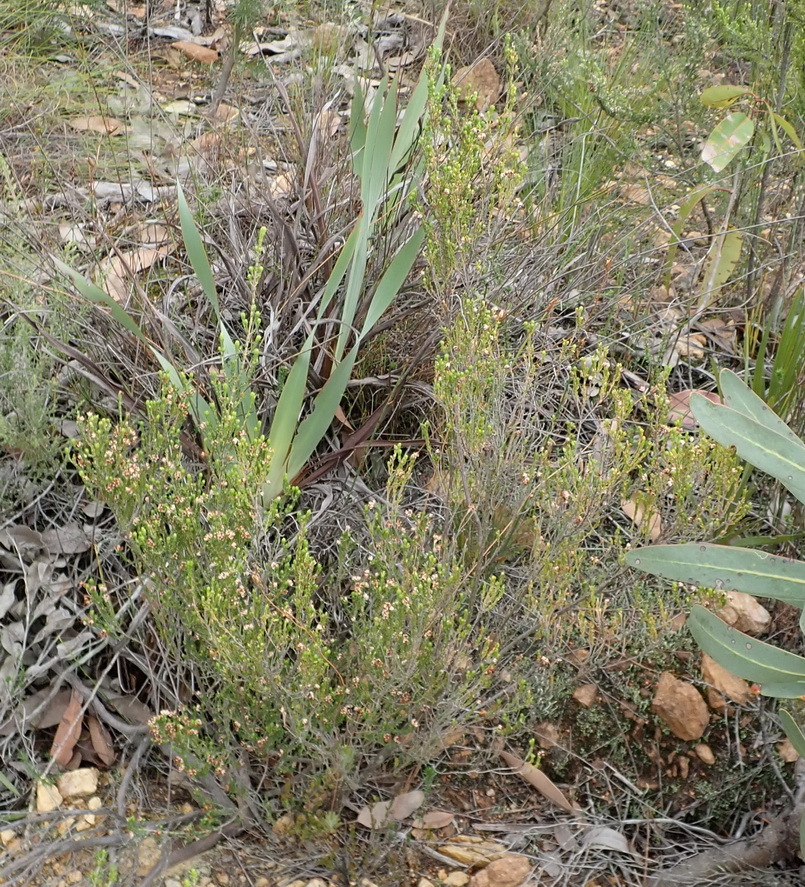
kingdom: Plantae
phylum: Tracheophyta
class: Magnoliopsida
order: Ericales
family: Ericaceae
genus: Erica
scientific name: Erica triceps
